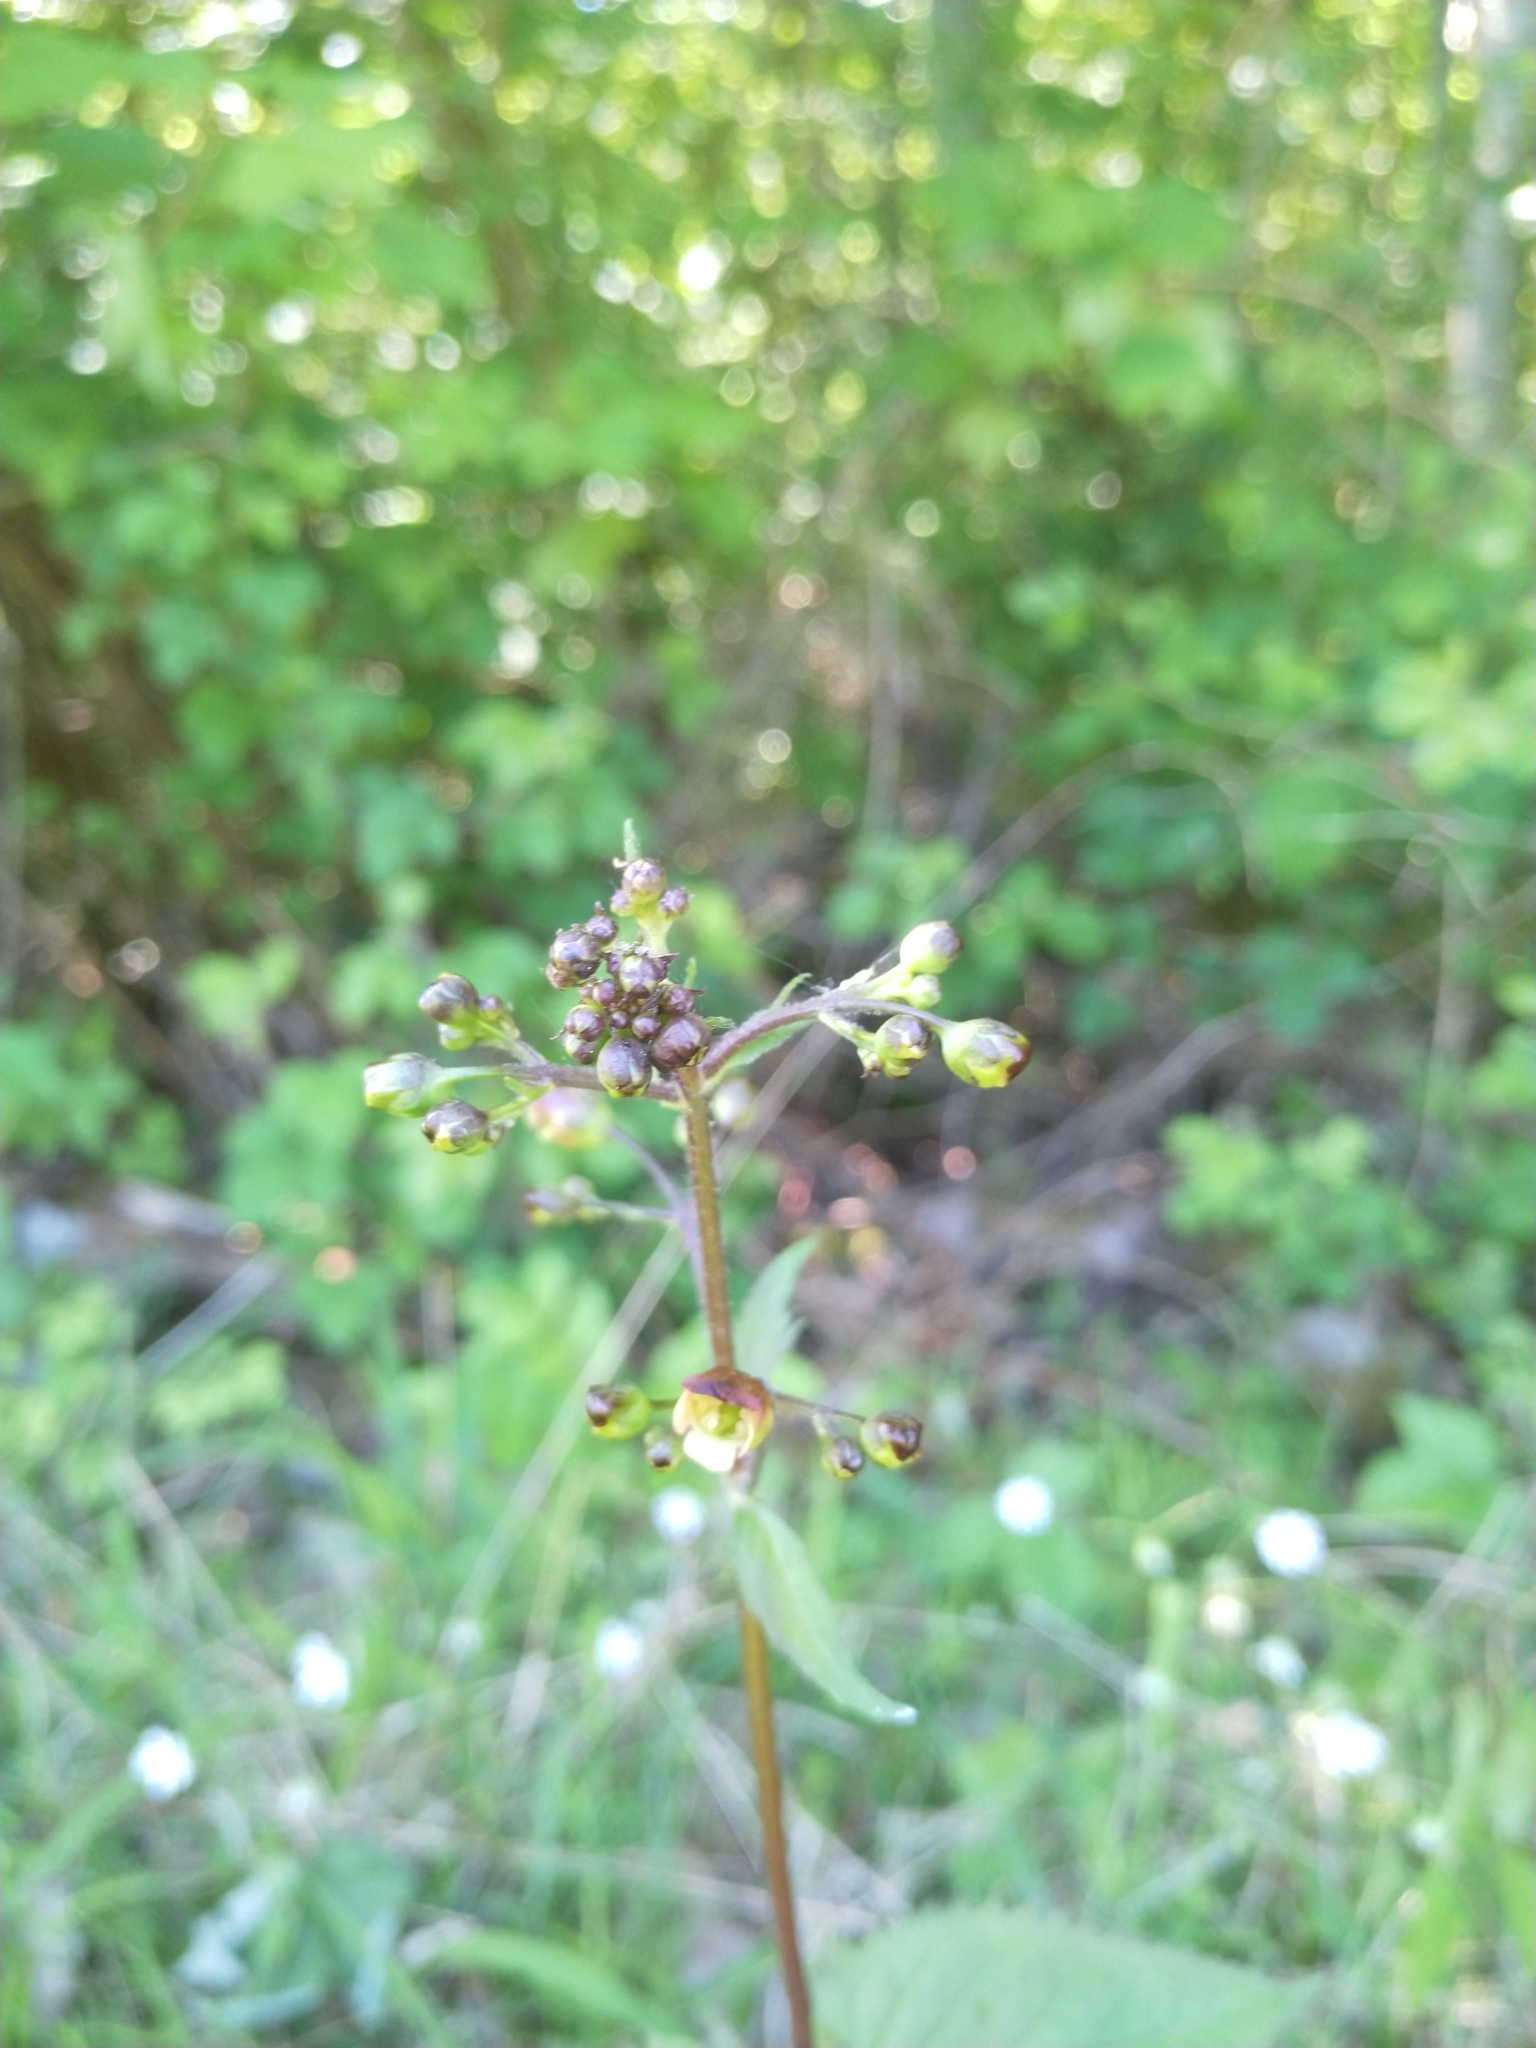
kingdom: Plantae
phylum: Tracheophyta
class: Magnoliopsida
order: Lamiales
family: Scrophulariaceae
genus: Scrophularia
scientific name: Scrophularia nodosa
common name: Common figwort
